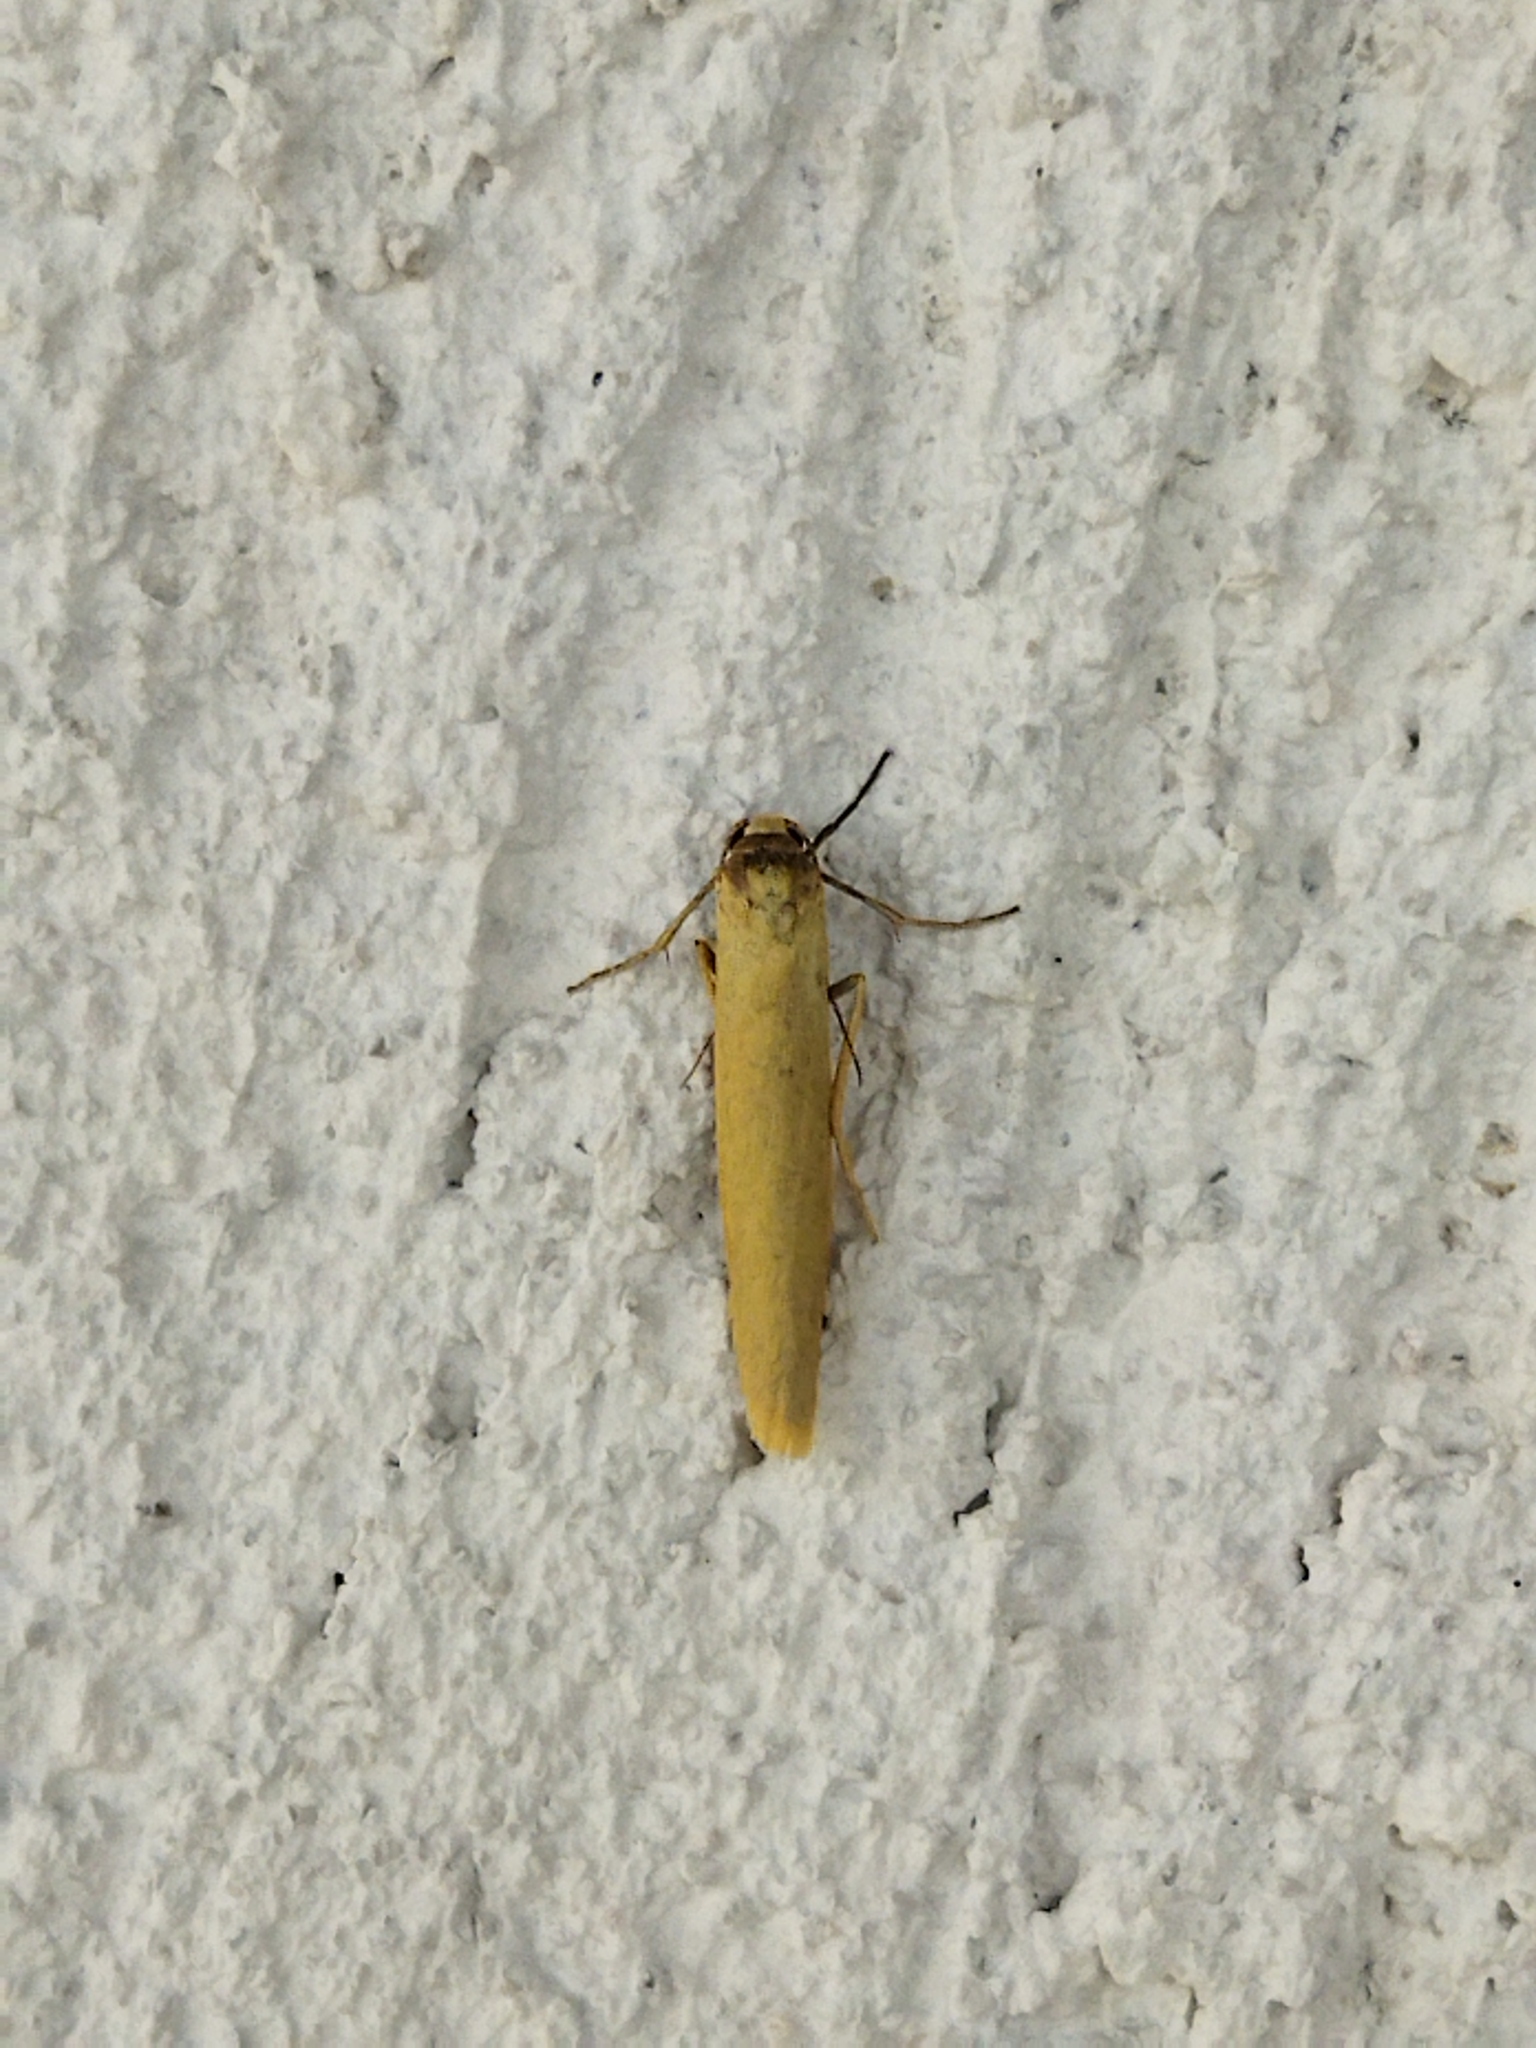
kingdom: Animalia
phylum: Arthropoda
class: Insecta
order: Lepidoptera
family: Erebidae
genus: Indalia
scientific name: Indalia lutarella
